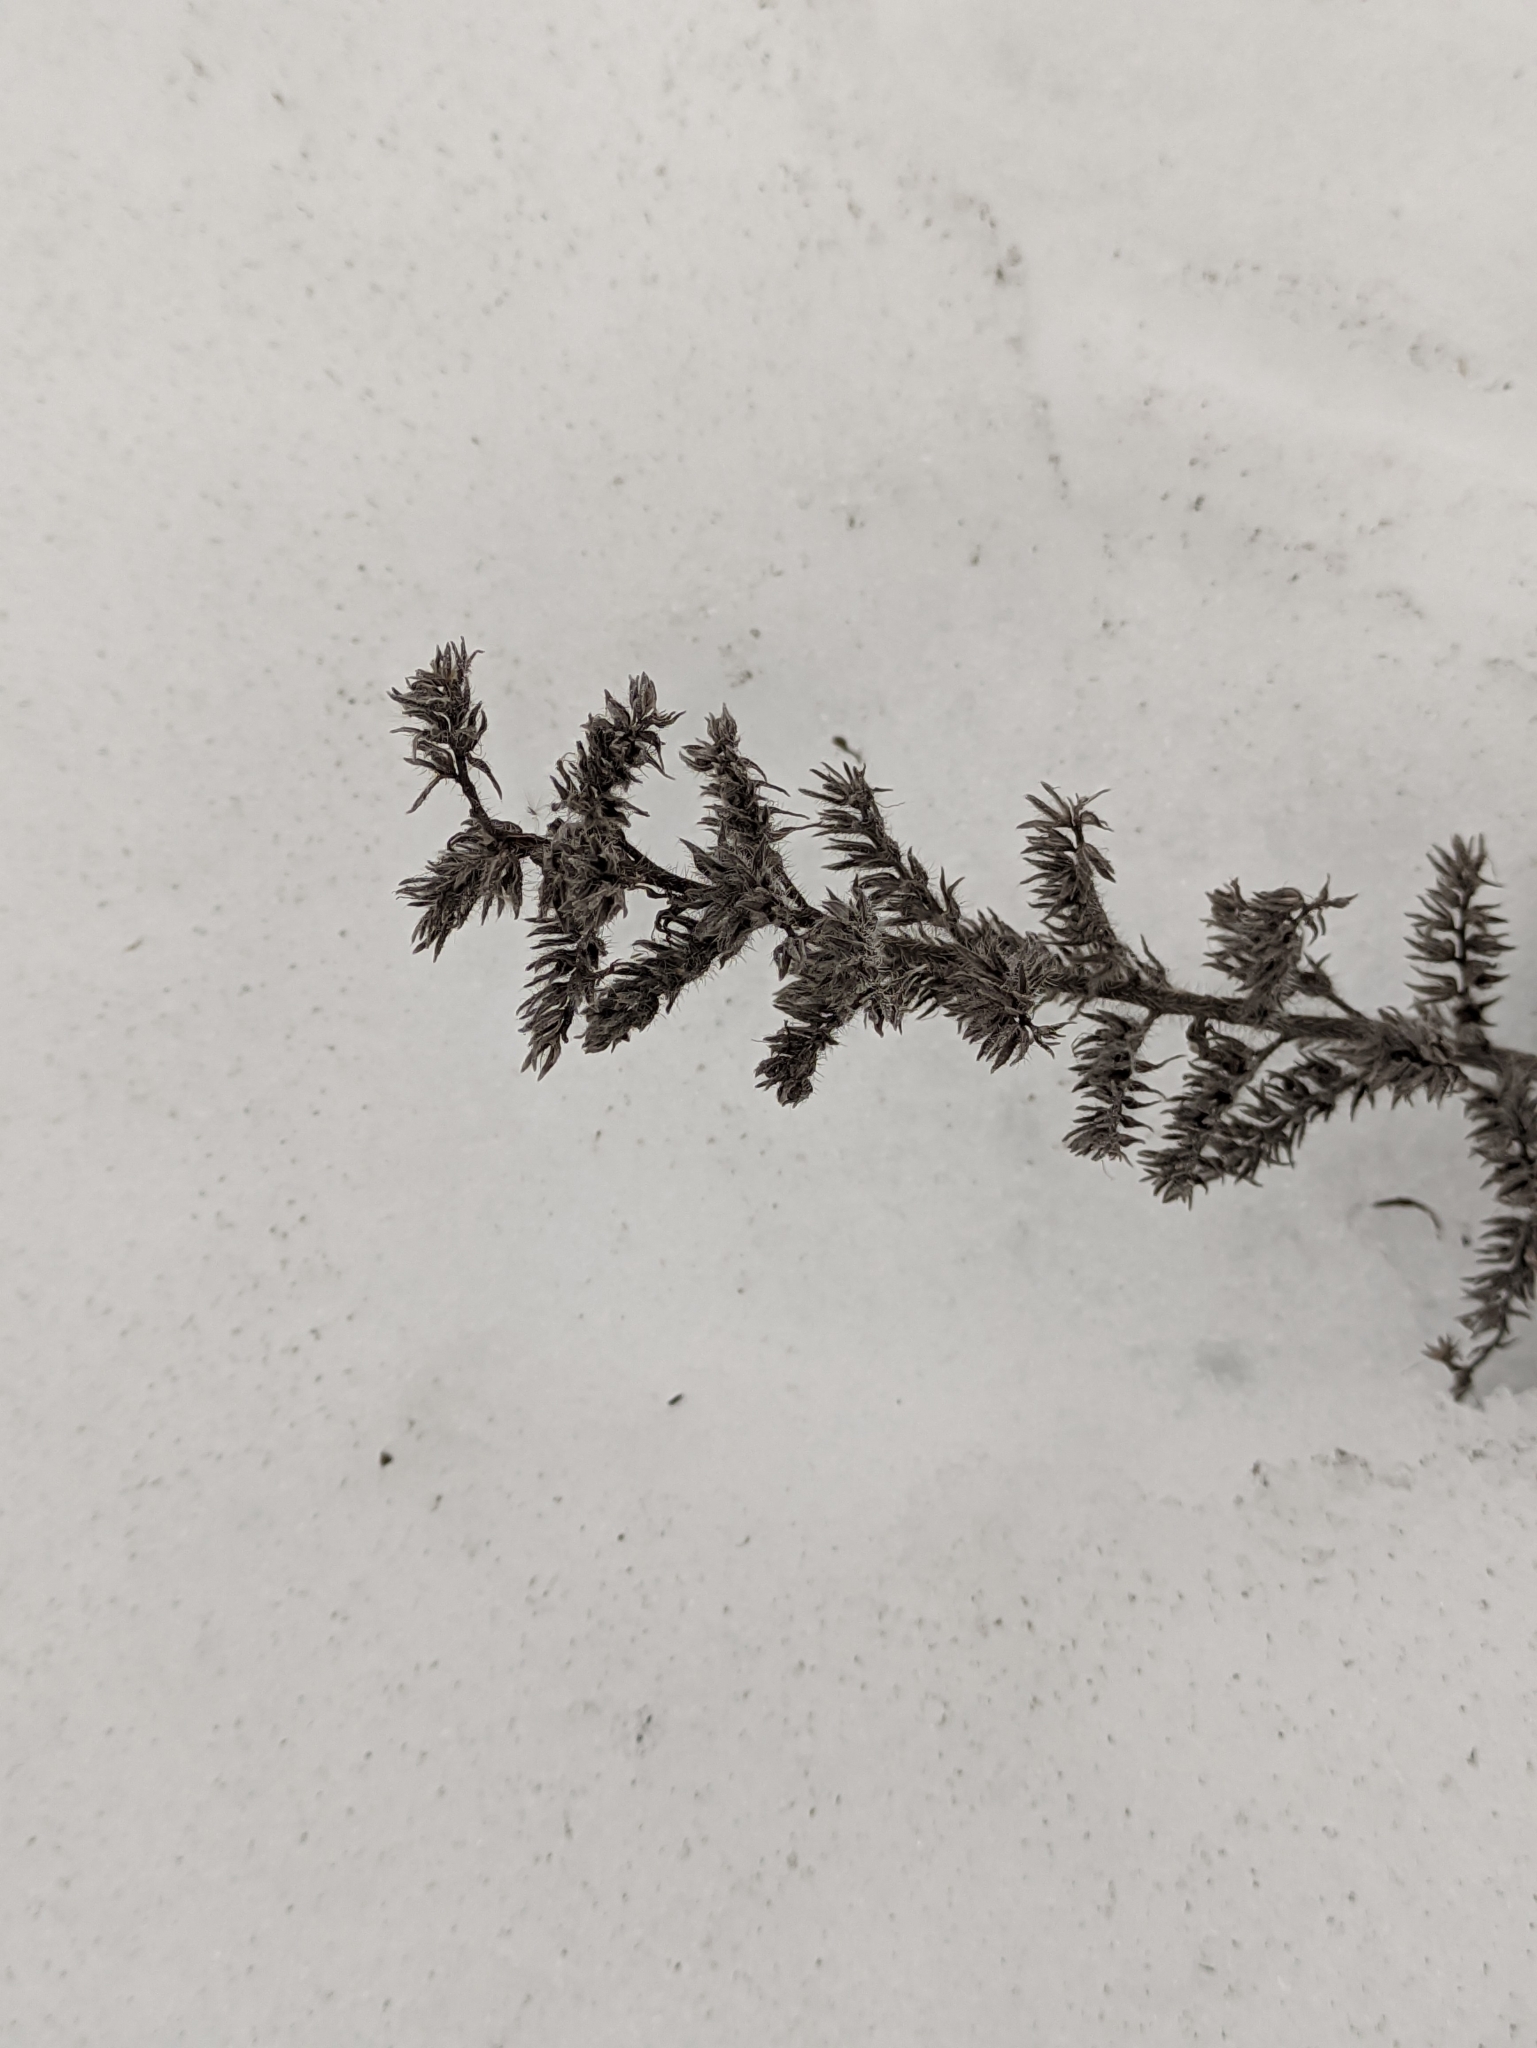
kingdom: Plantae
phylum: Tracheophyta
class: Magnoliopsida
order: Boraginales
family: Boraginaceae
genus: Echium
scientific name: Echium vulgare
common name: Common viper's bugloss
